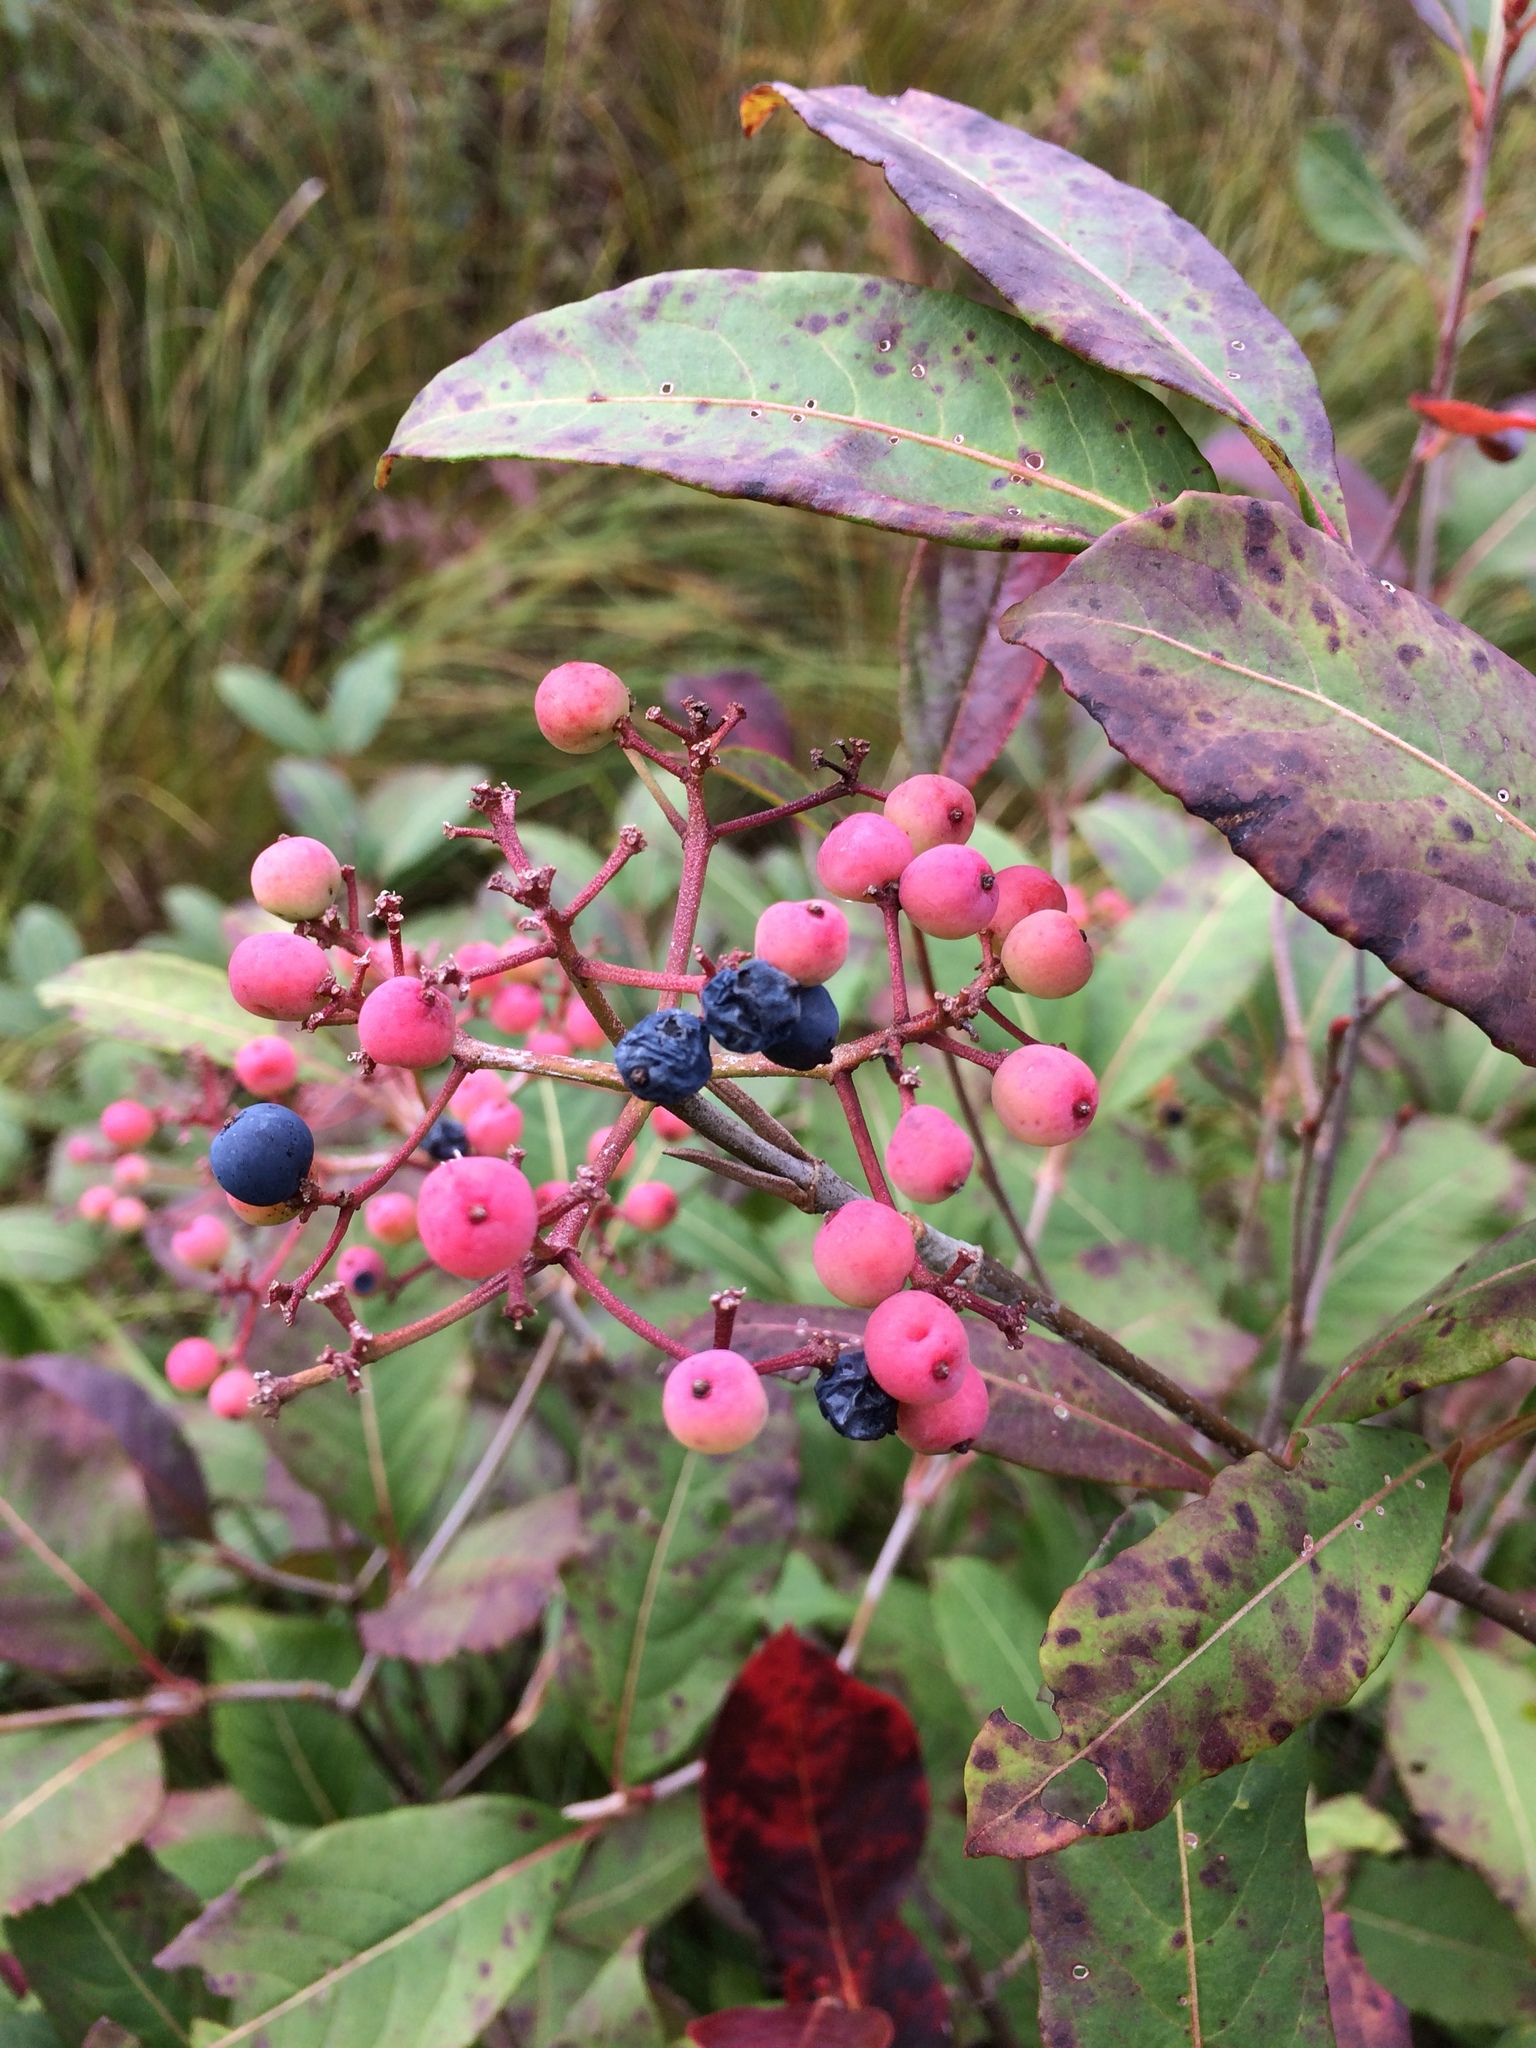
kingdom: Plantae
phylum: Tracheophyta
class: Magnoliopsida
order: Dipsacales
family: Viburnaceae
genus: Viburnum
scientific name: Viburnum cassinoides
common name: Swamp haw
